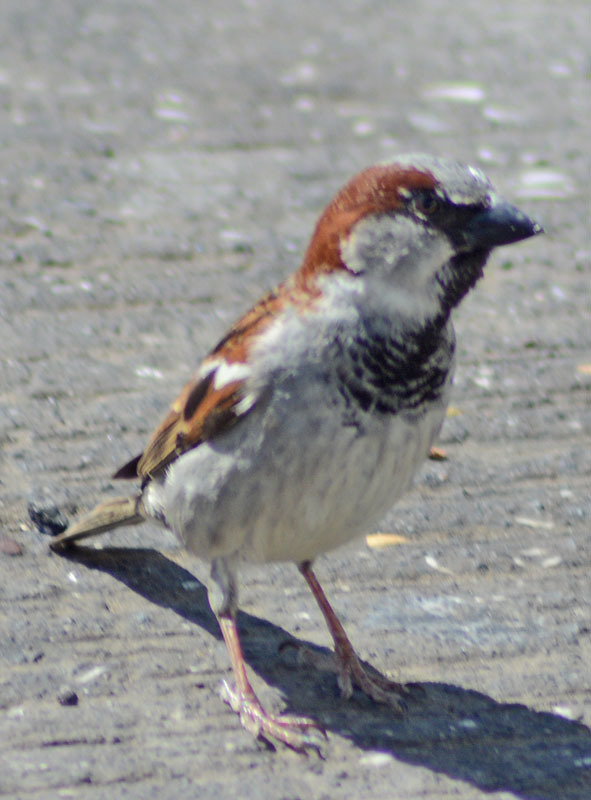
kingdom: Animalia
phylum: Chordata
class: Aves
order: Passeriformes
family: Passeridae
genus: Passer
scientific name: Passer domesticus
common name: House sparrow
